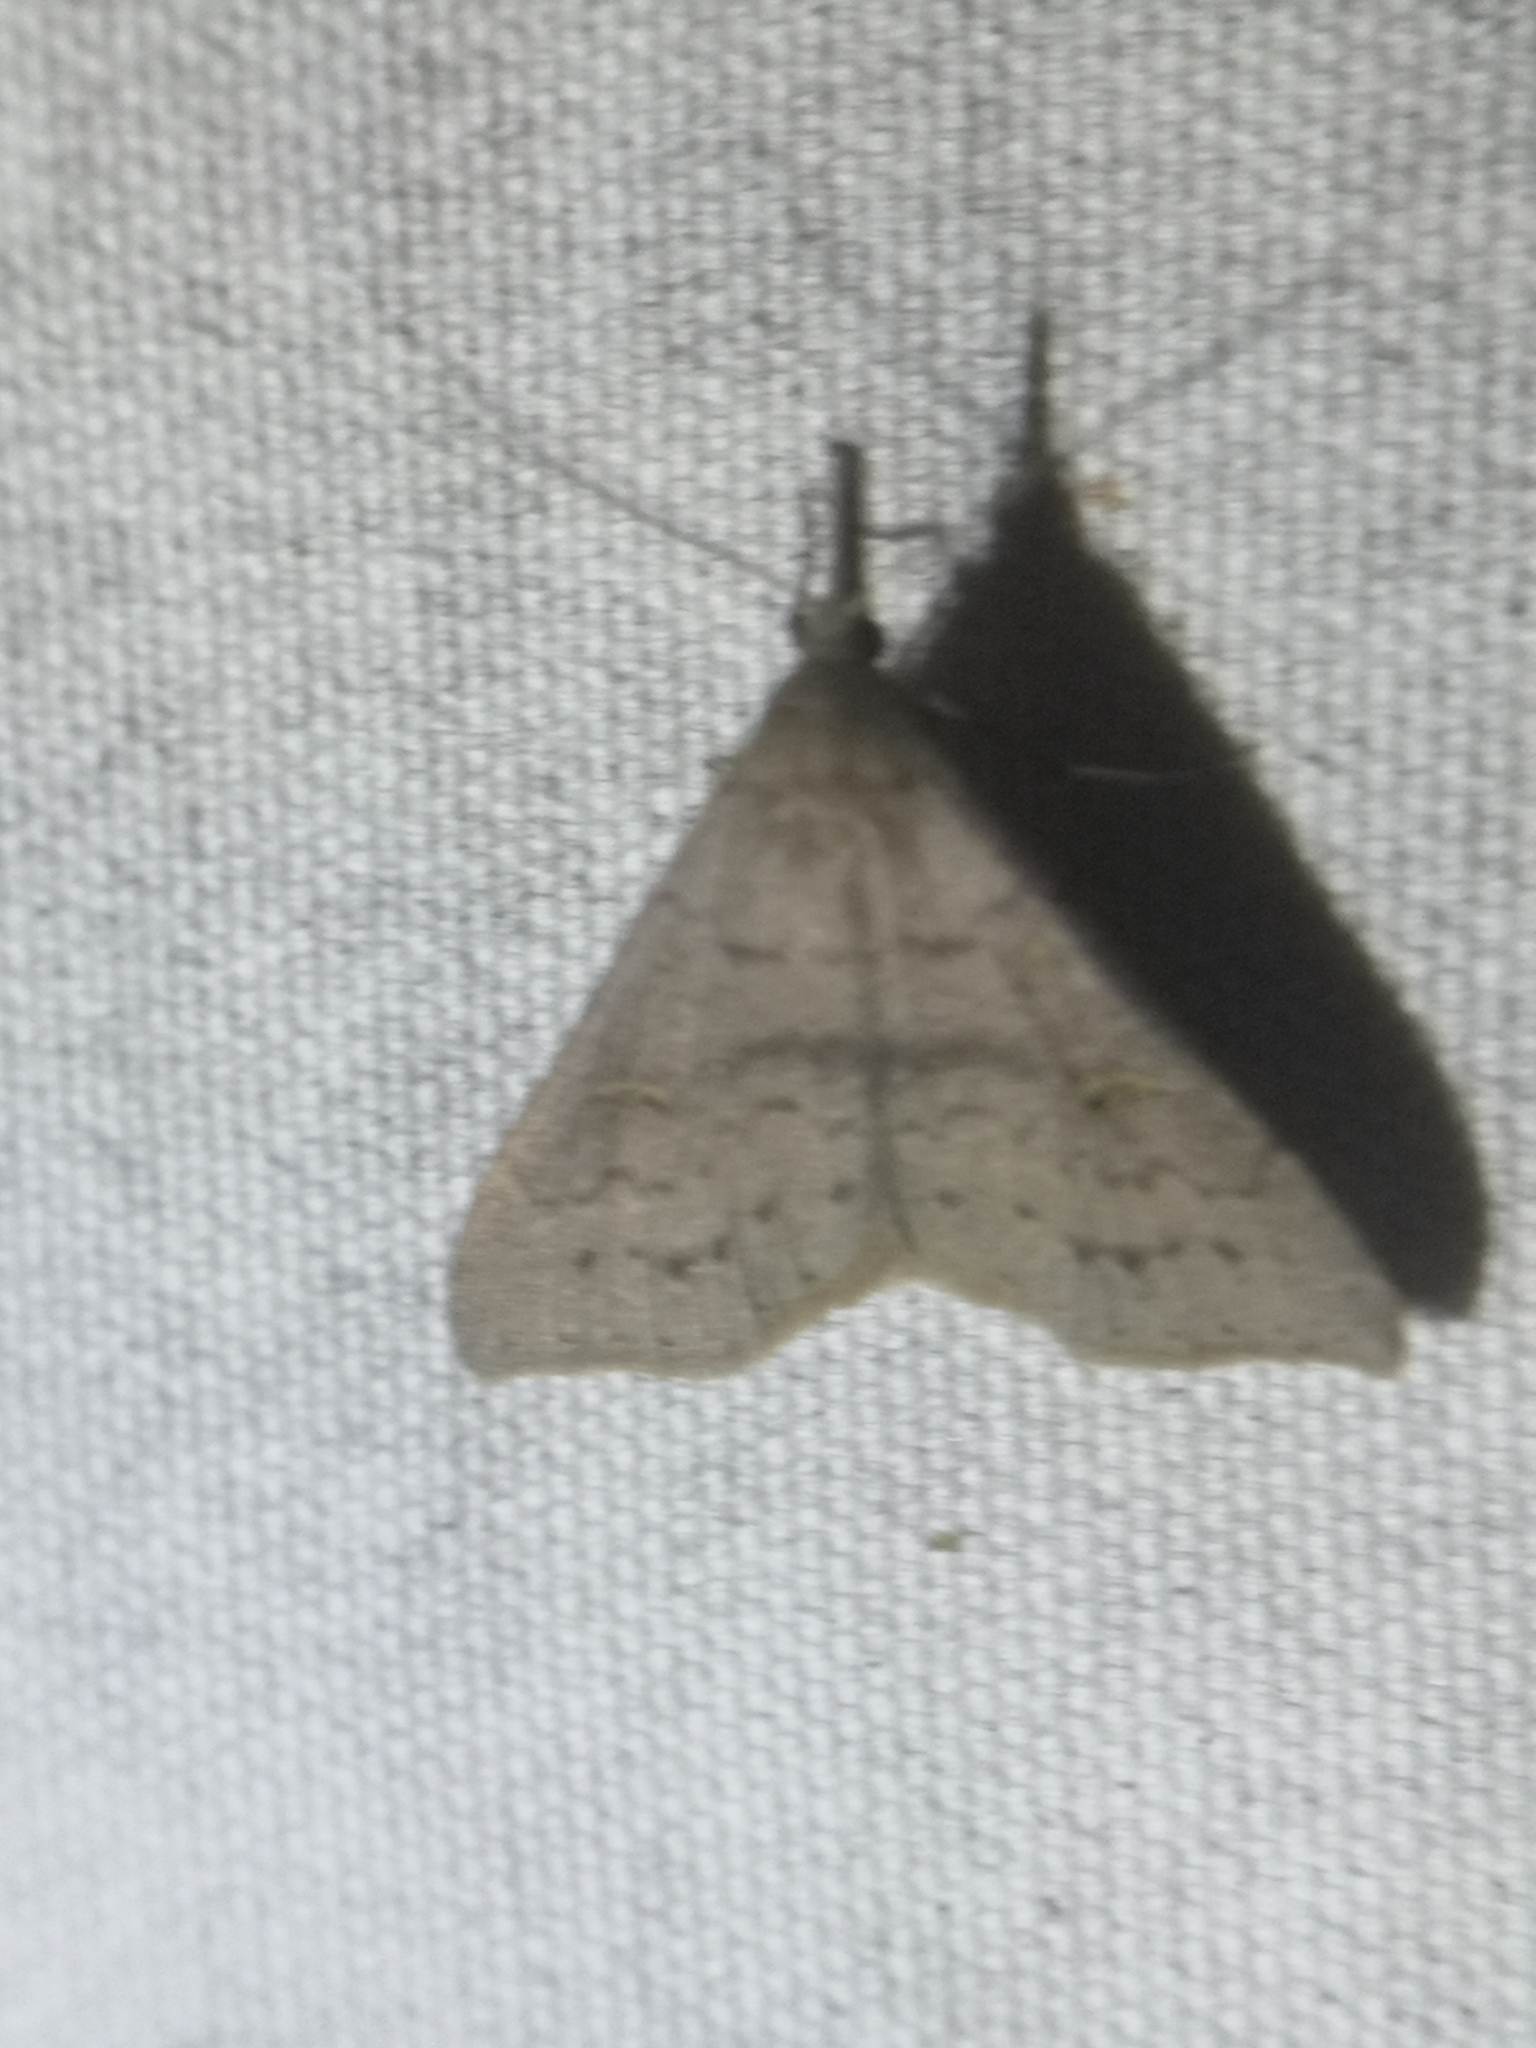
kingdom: Animalia
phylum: Arthropoda
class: Insecta
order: Lepidoptera
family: Erebidae
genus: Renia
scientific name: Renia adspergillus
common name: Speckled renia moth
